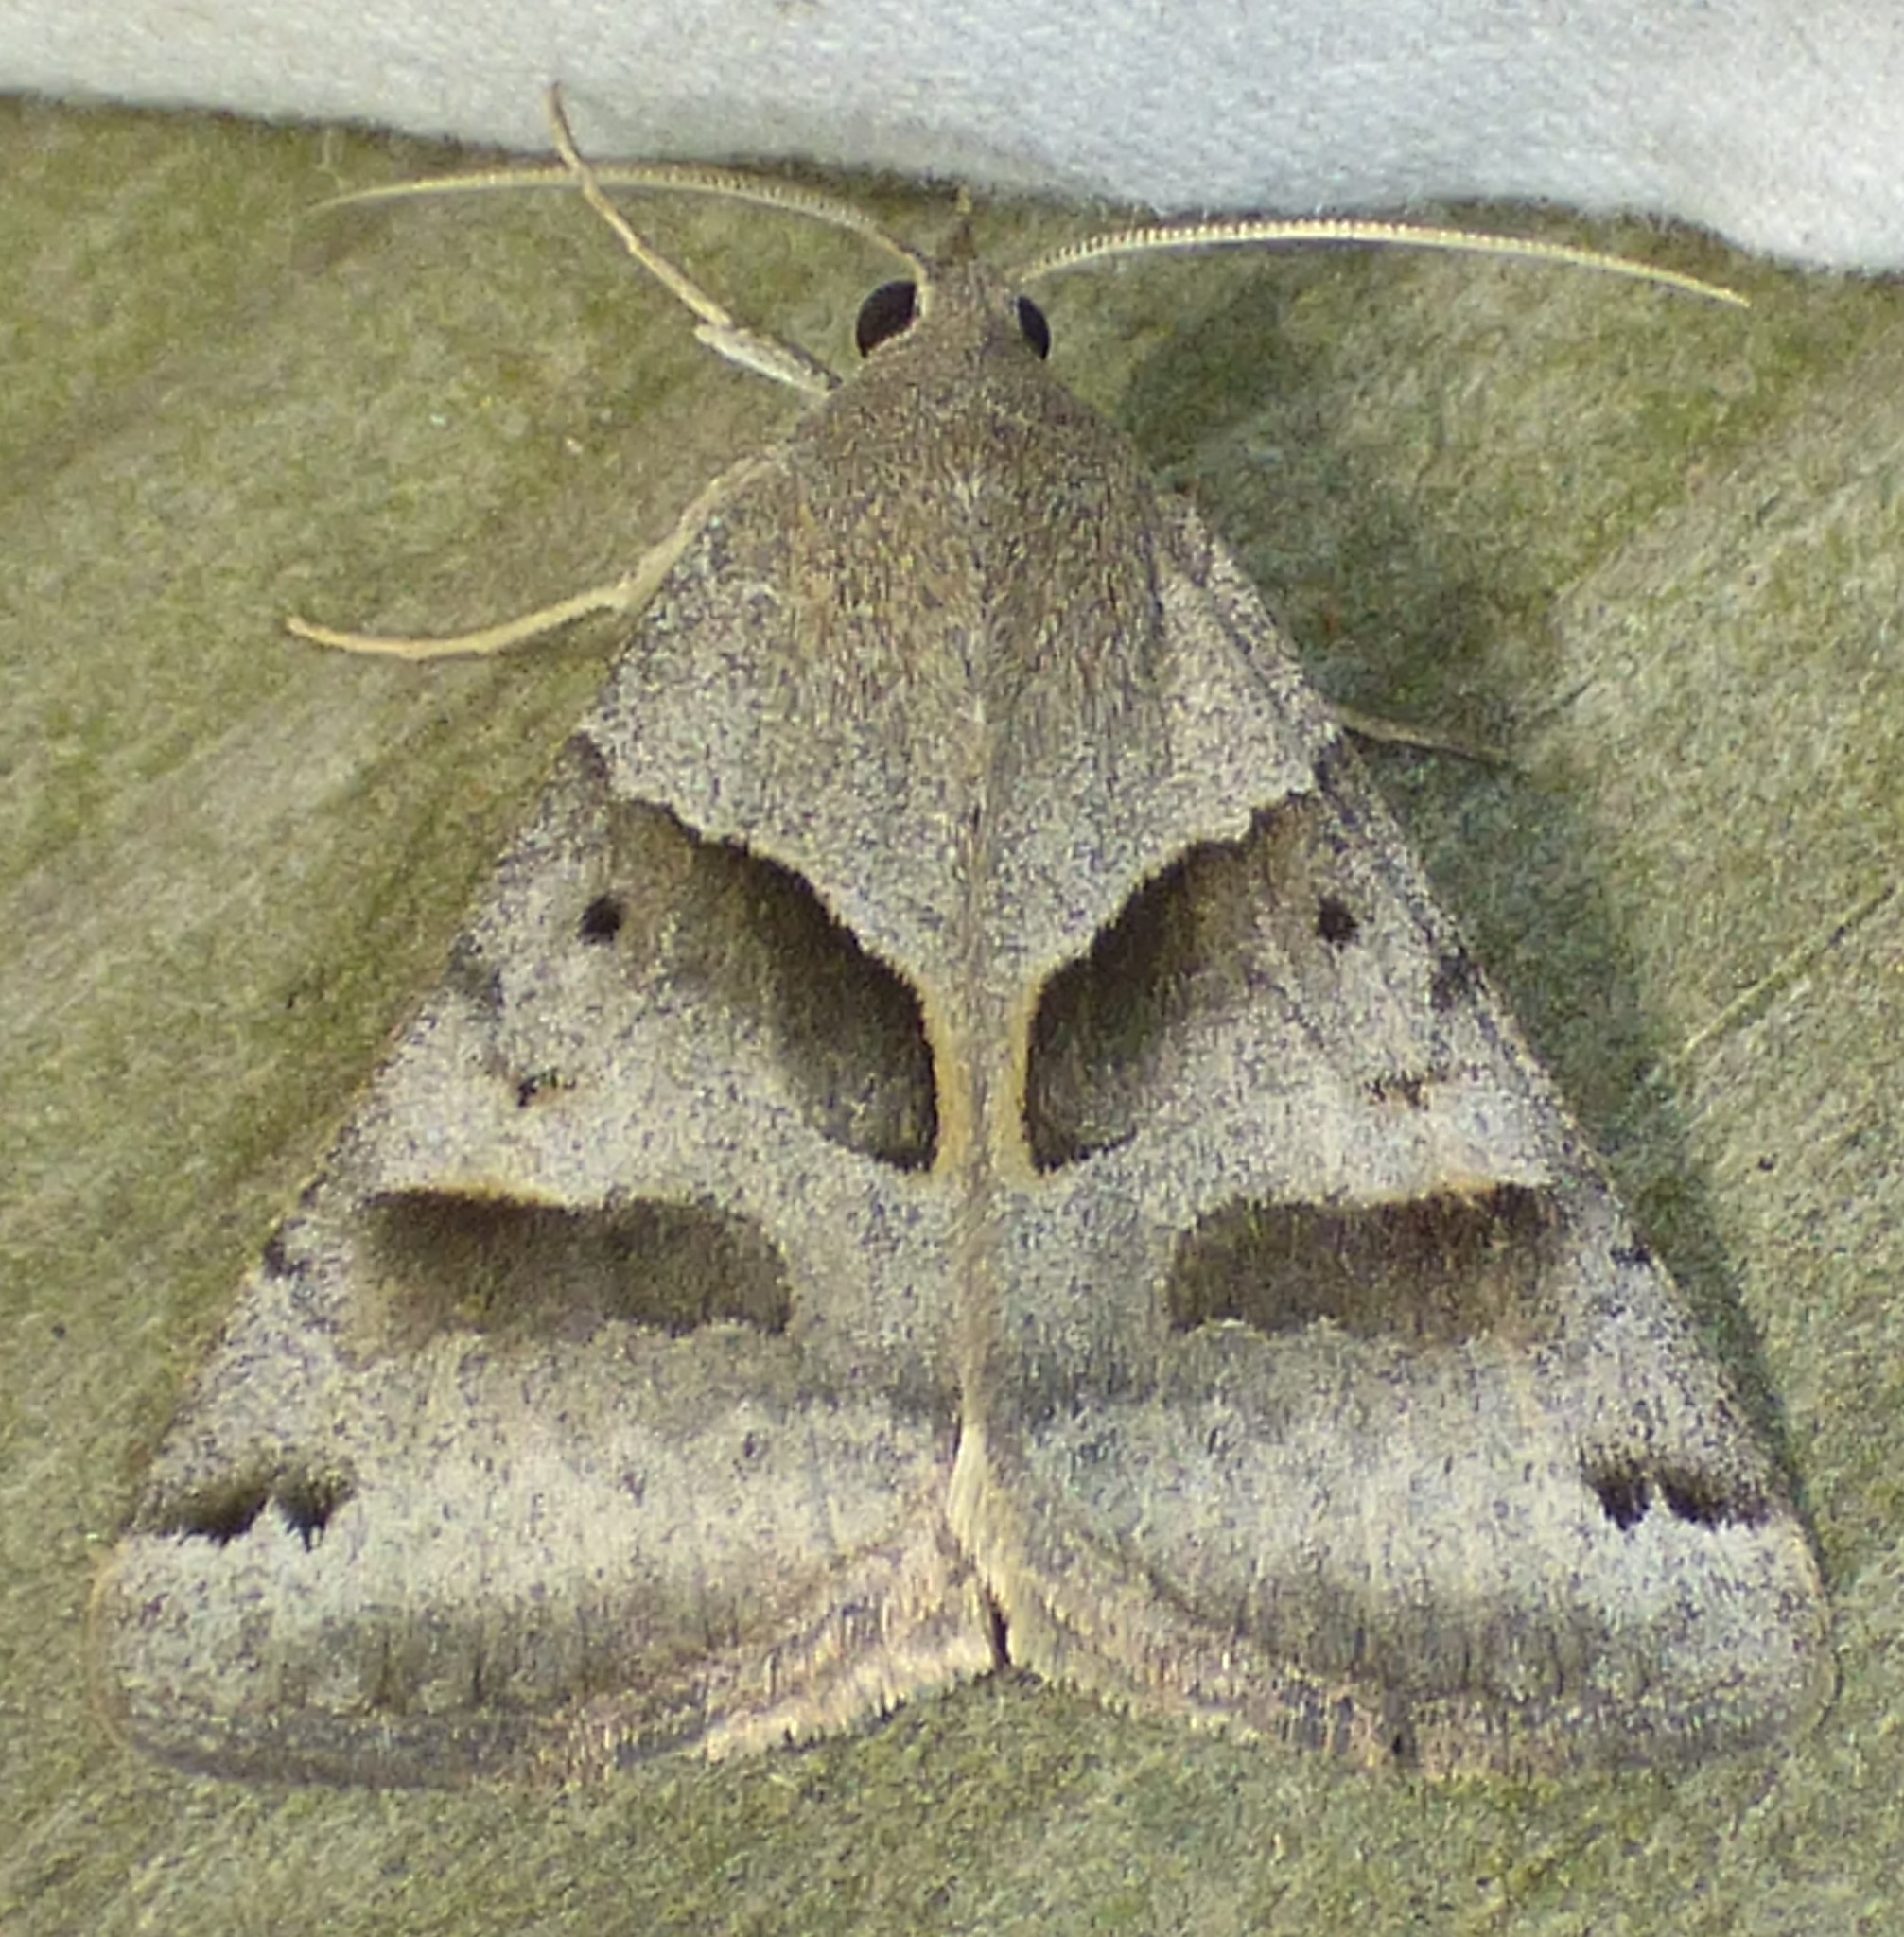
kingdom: Animalia
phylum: Arthropoda
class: Insecta
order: Lepidoptera
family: Erebidae
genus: Caenurgina
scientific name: Caenurgina erechtea
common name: Forage looper moth
